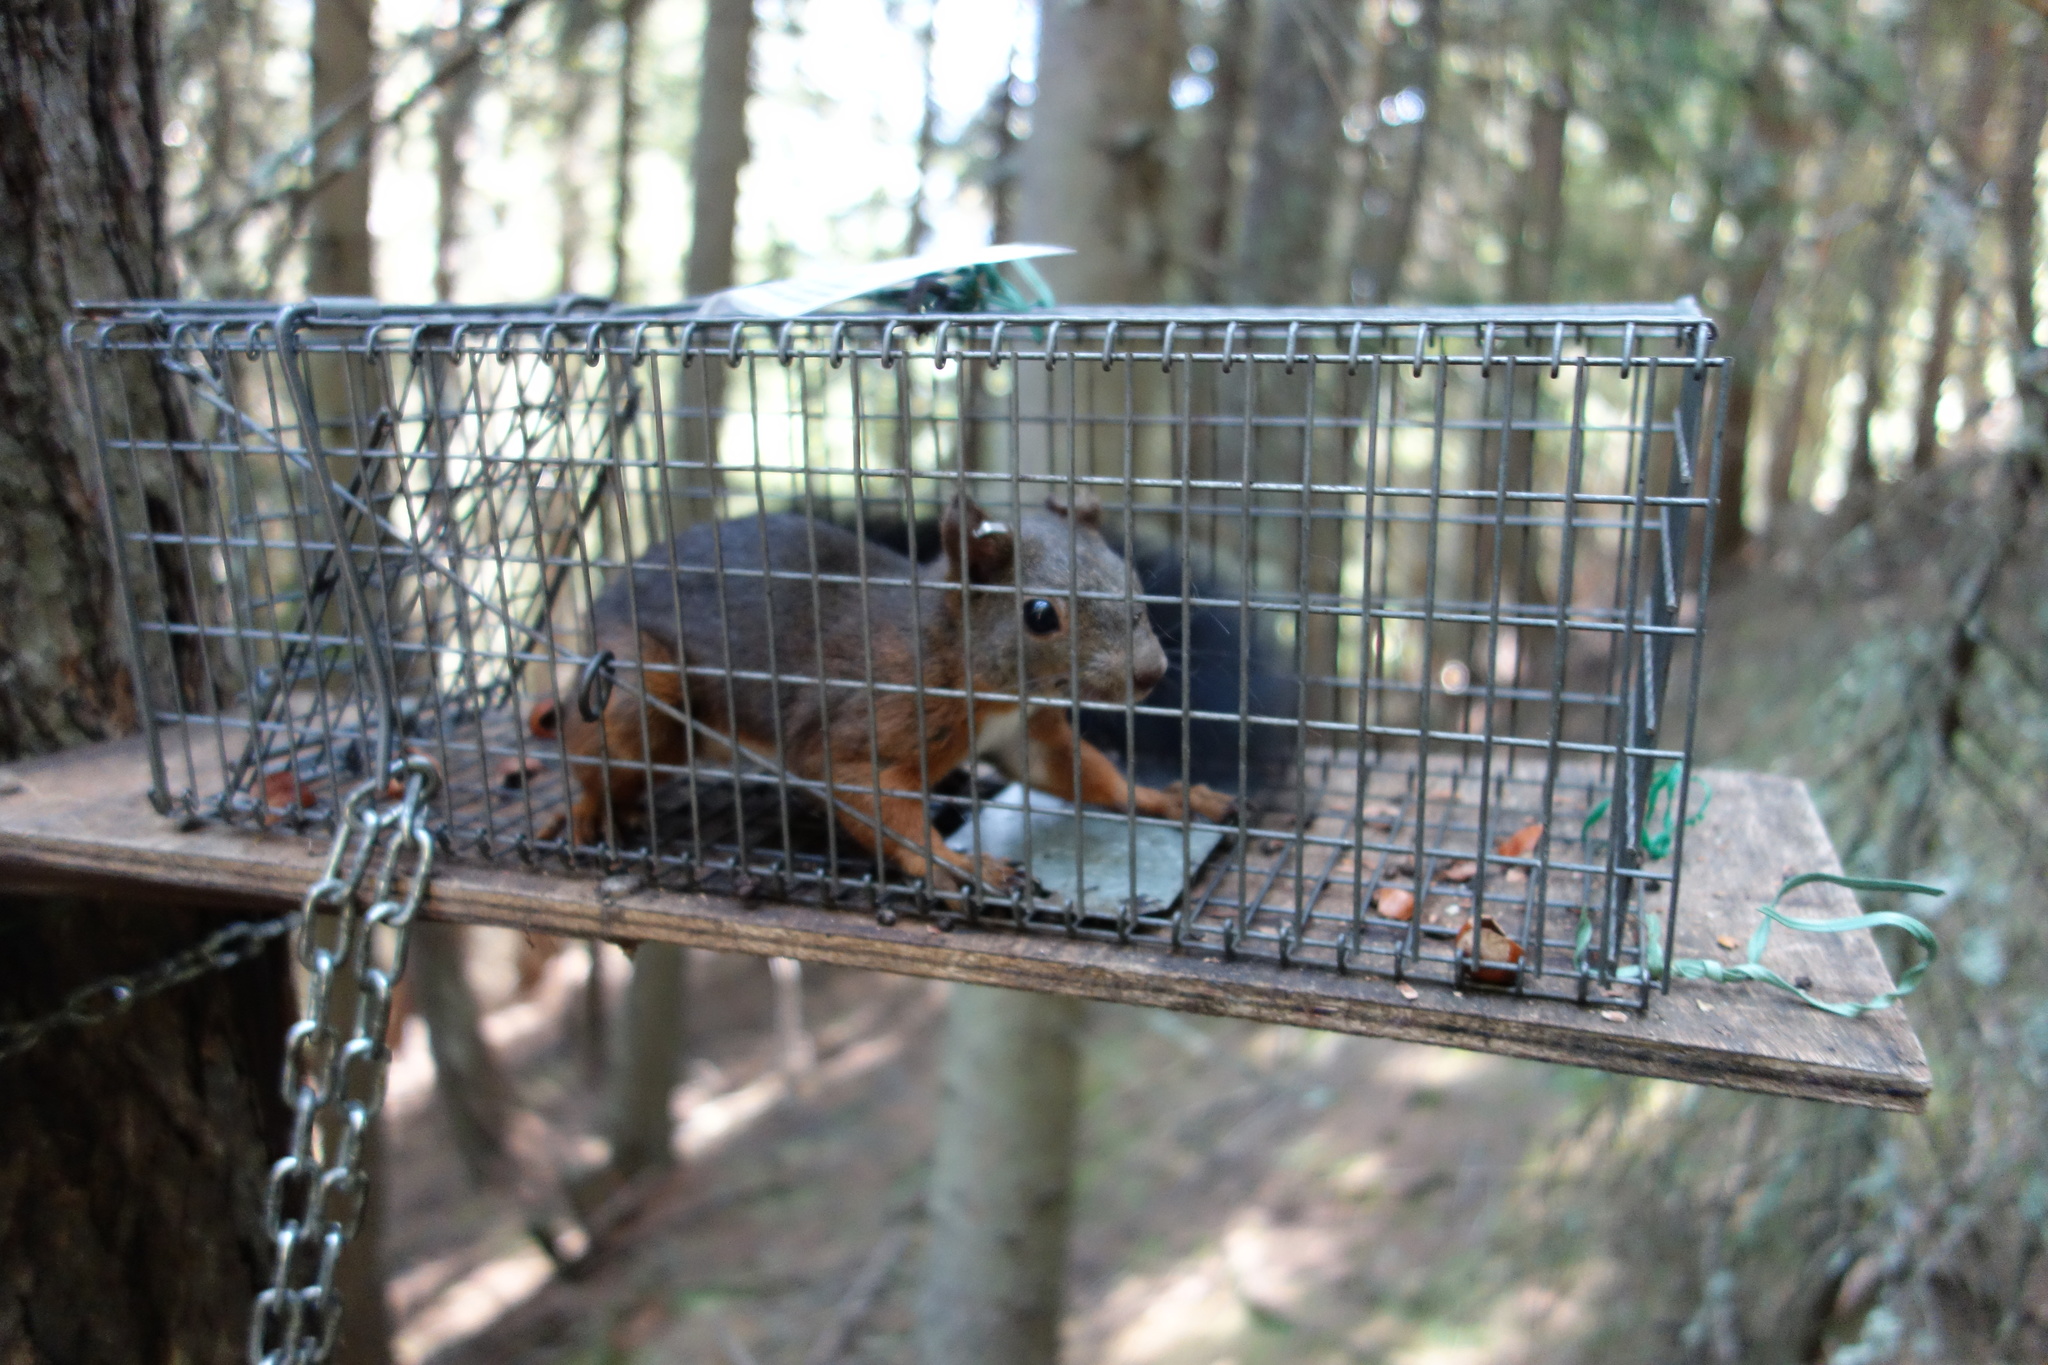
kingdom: Animalia
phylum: Chordata
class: Mammalia
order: Rodentia
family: Sciuridae
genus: Sciurus
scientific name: Sciurus vulgaris
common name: Eurasian red squirrel
